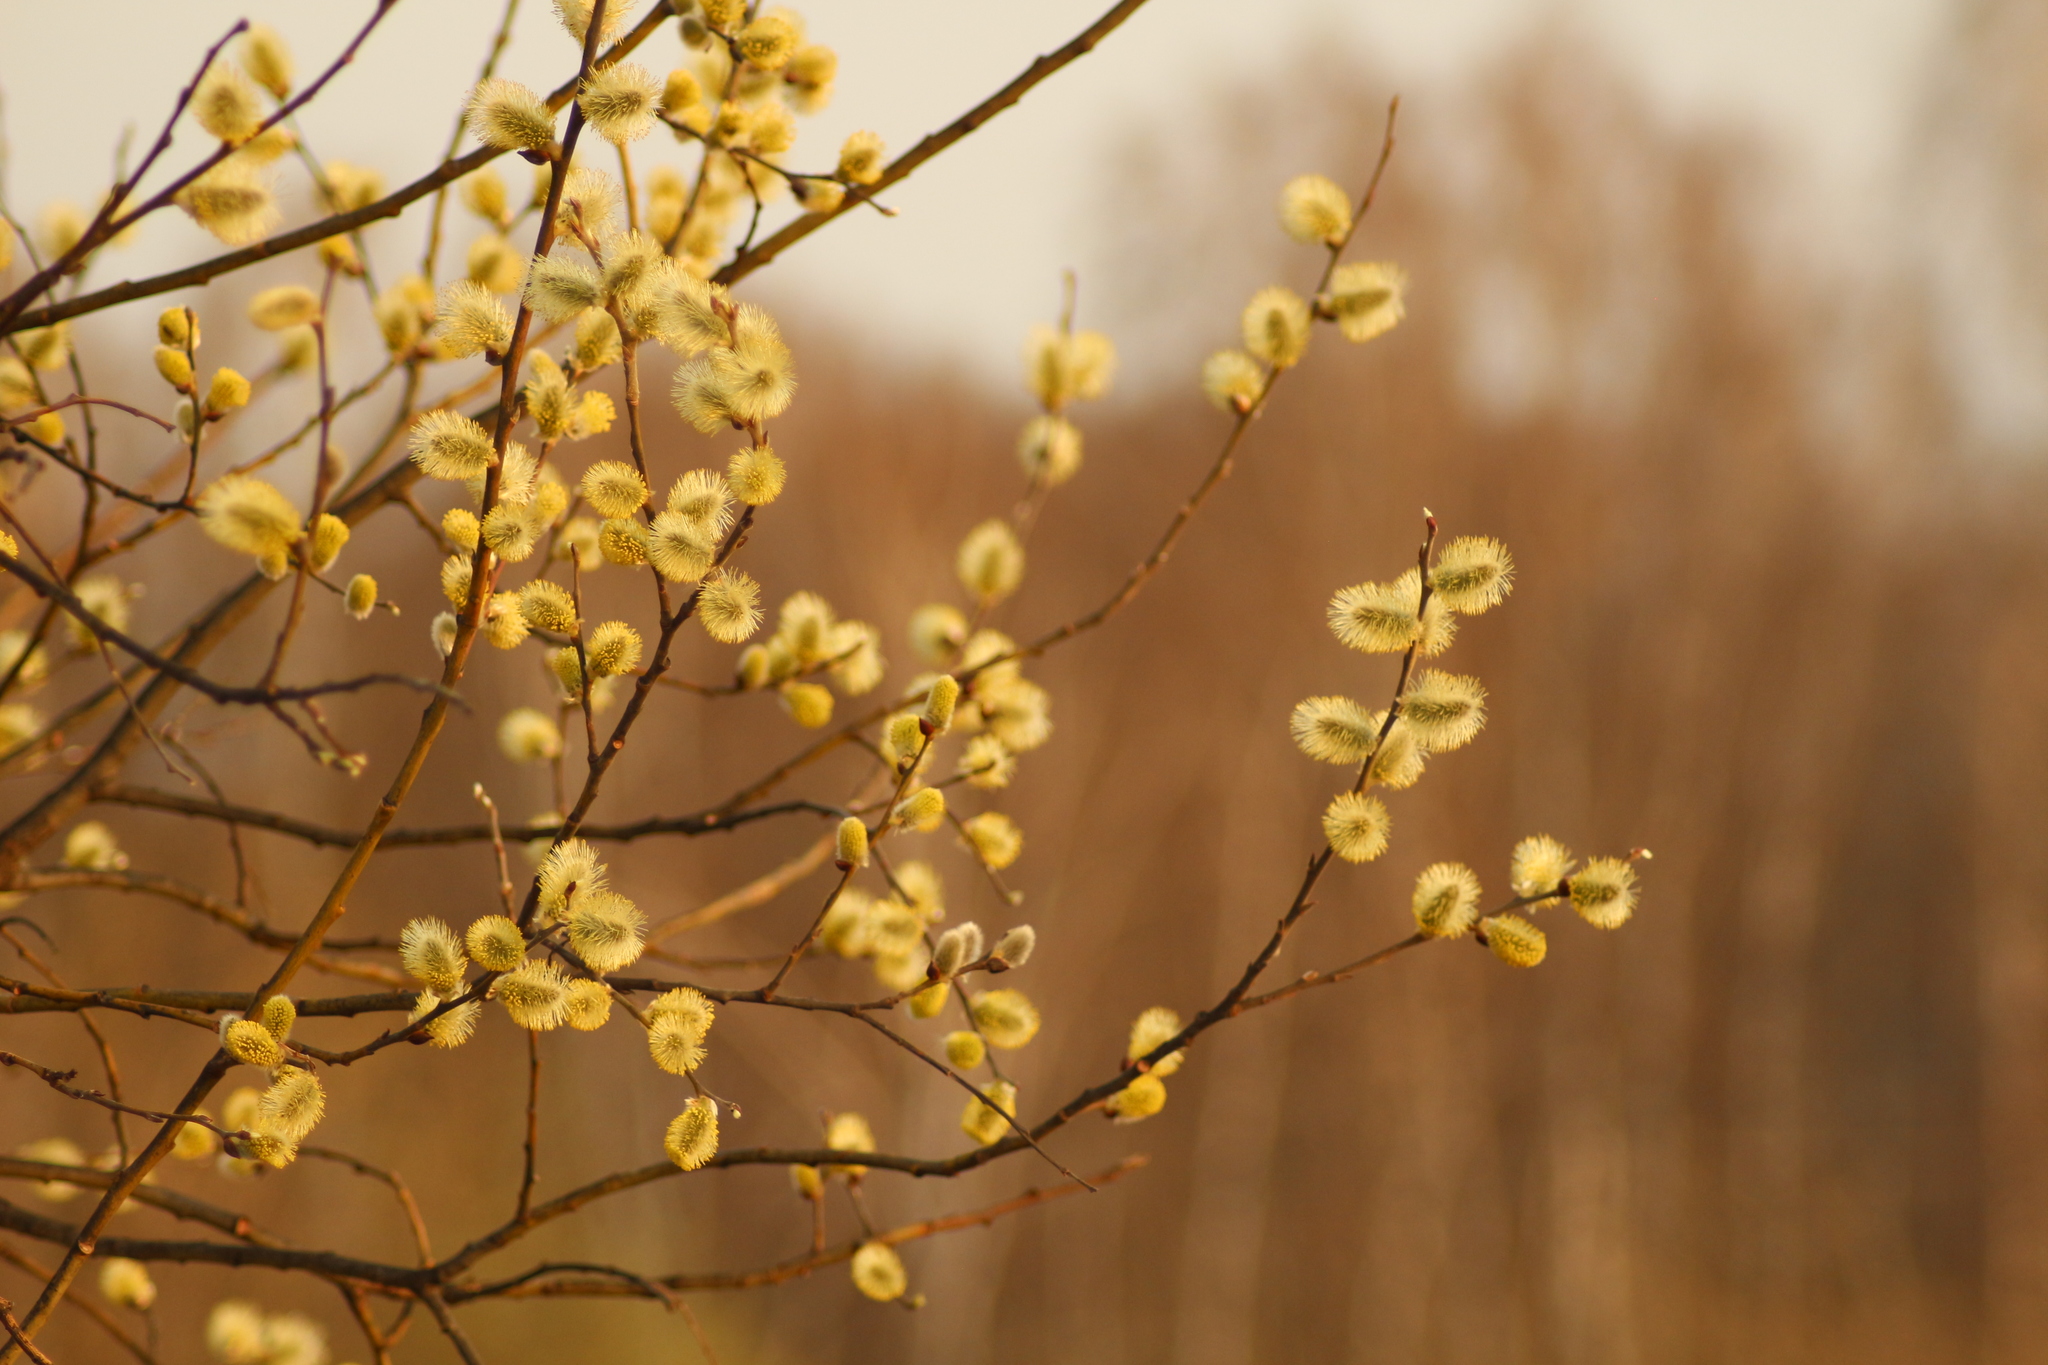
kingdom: Plantae
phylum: Tracheophyta
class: Magnoliopsida
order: Malpighiales
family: Salicaceae
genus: Salix
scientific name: Salix caprea
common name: Goat willow
